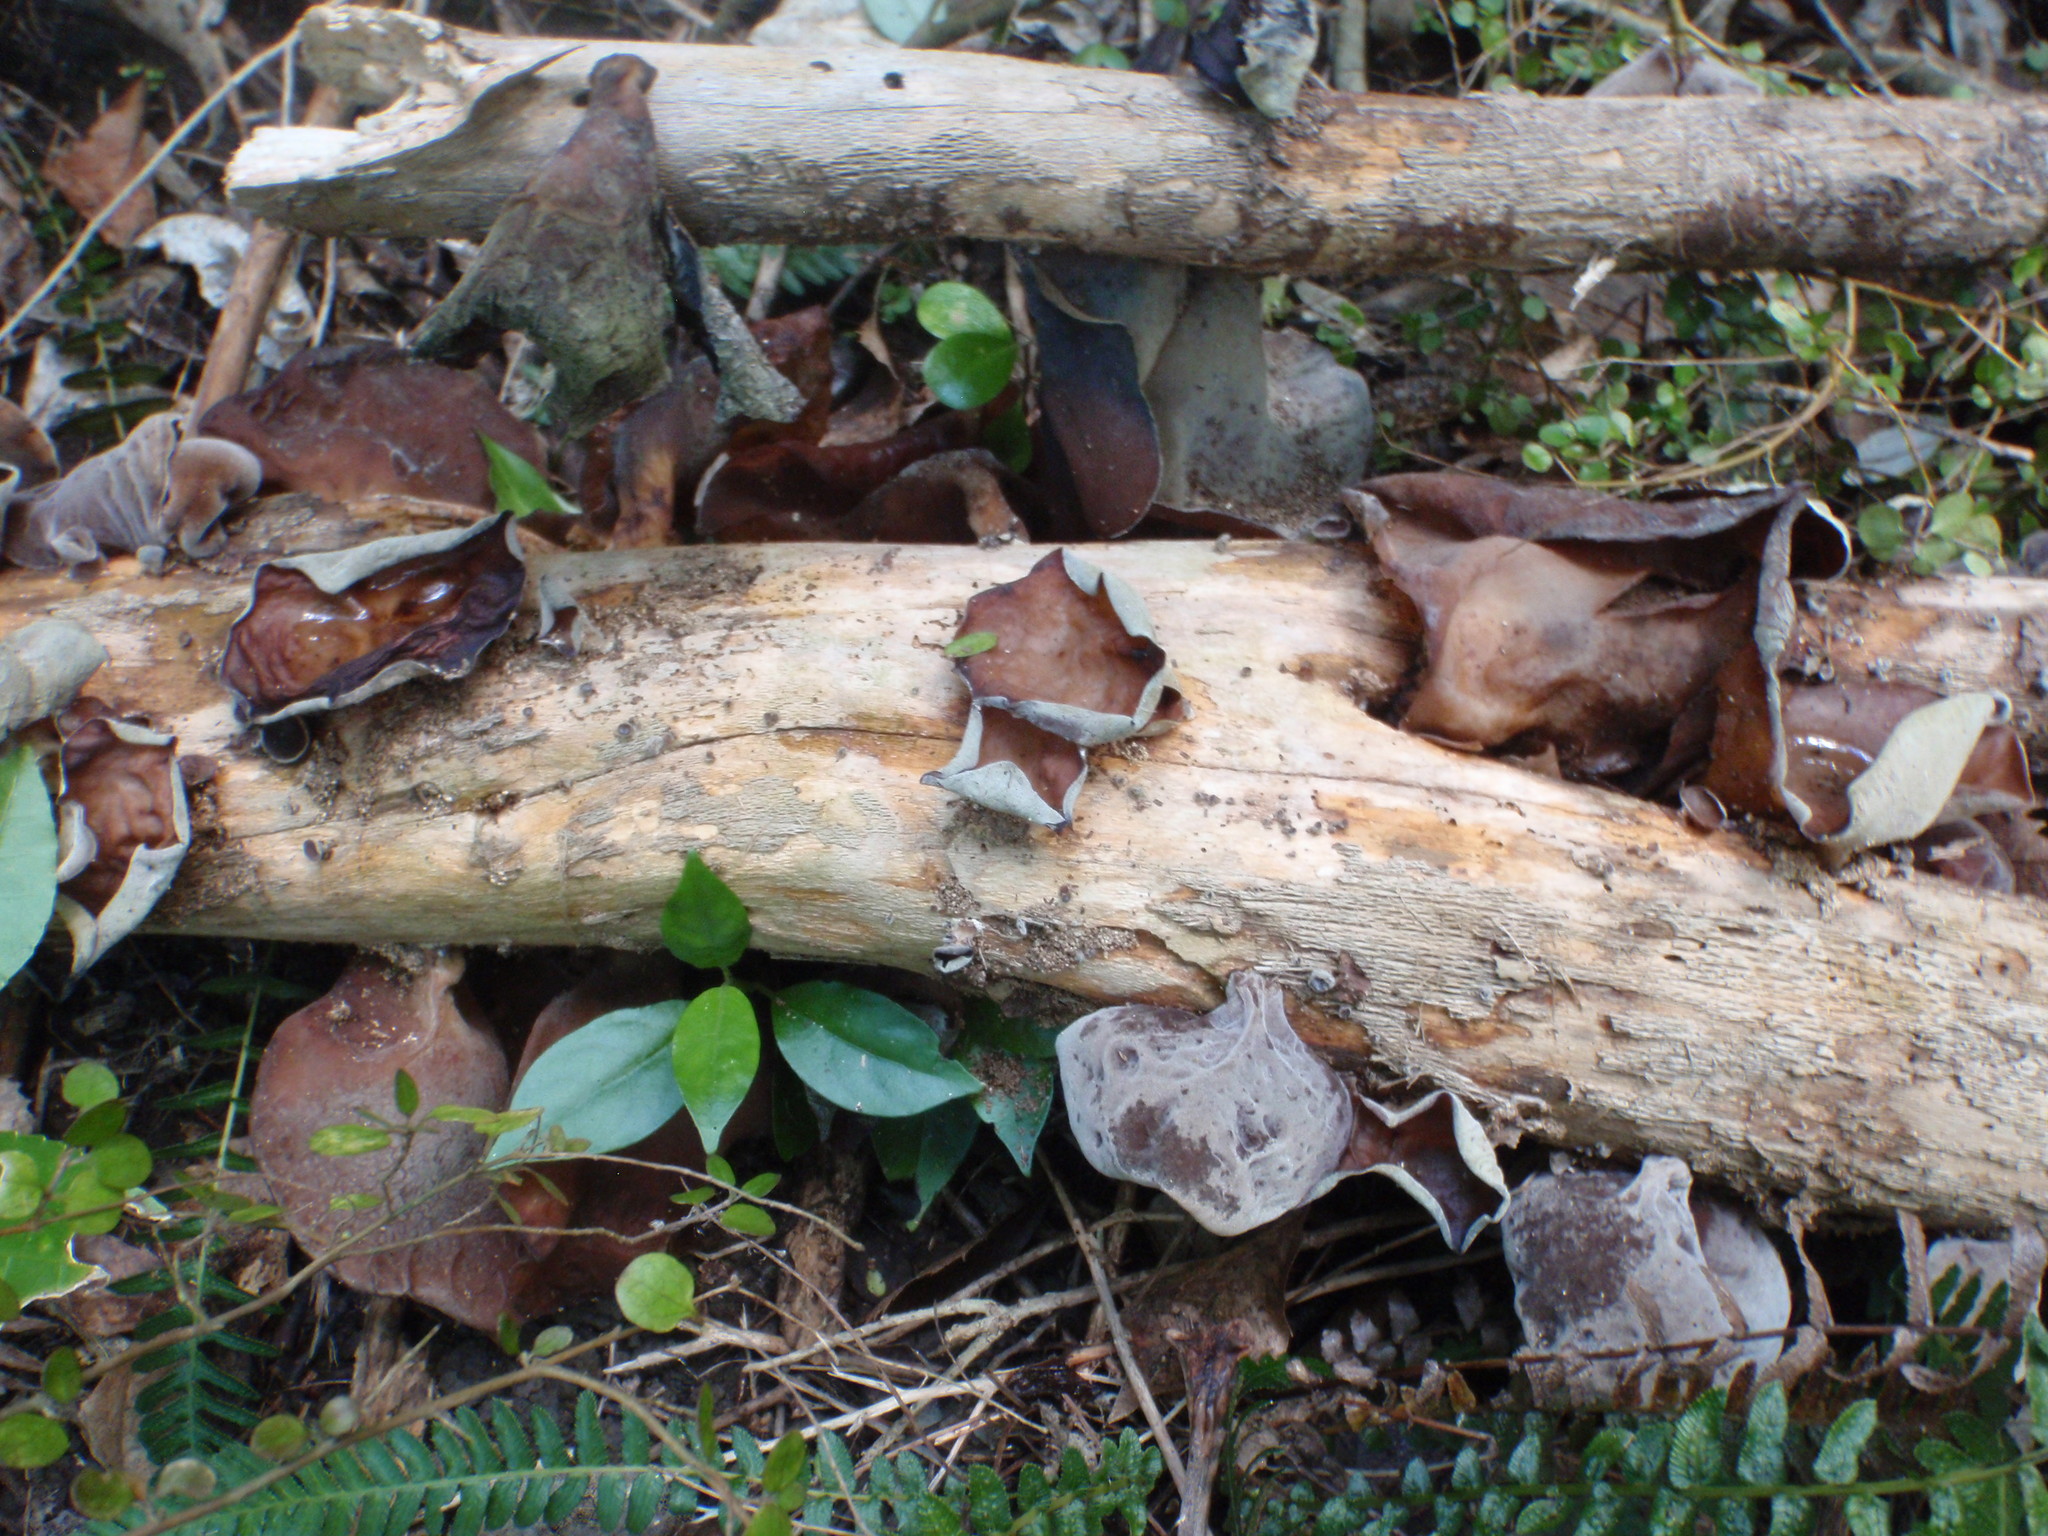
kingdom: Fungi
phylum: Basidiomycota
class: Agaricomycetes
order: Auriculariales
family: Auriculariaceae
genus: Auricularia
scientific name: Auricularia cornea
